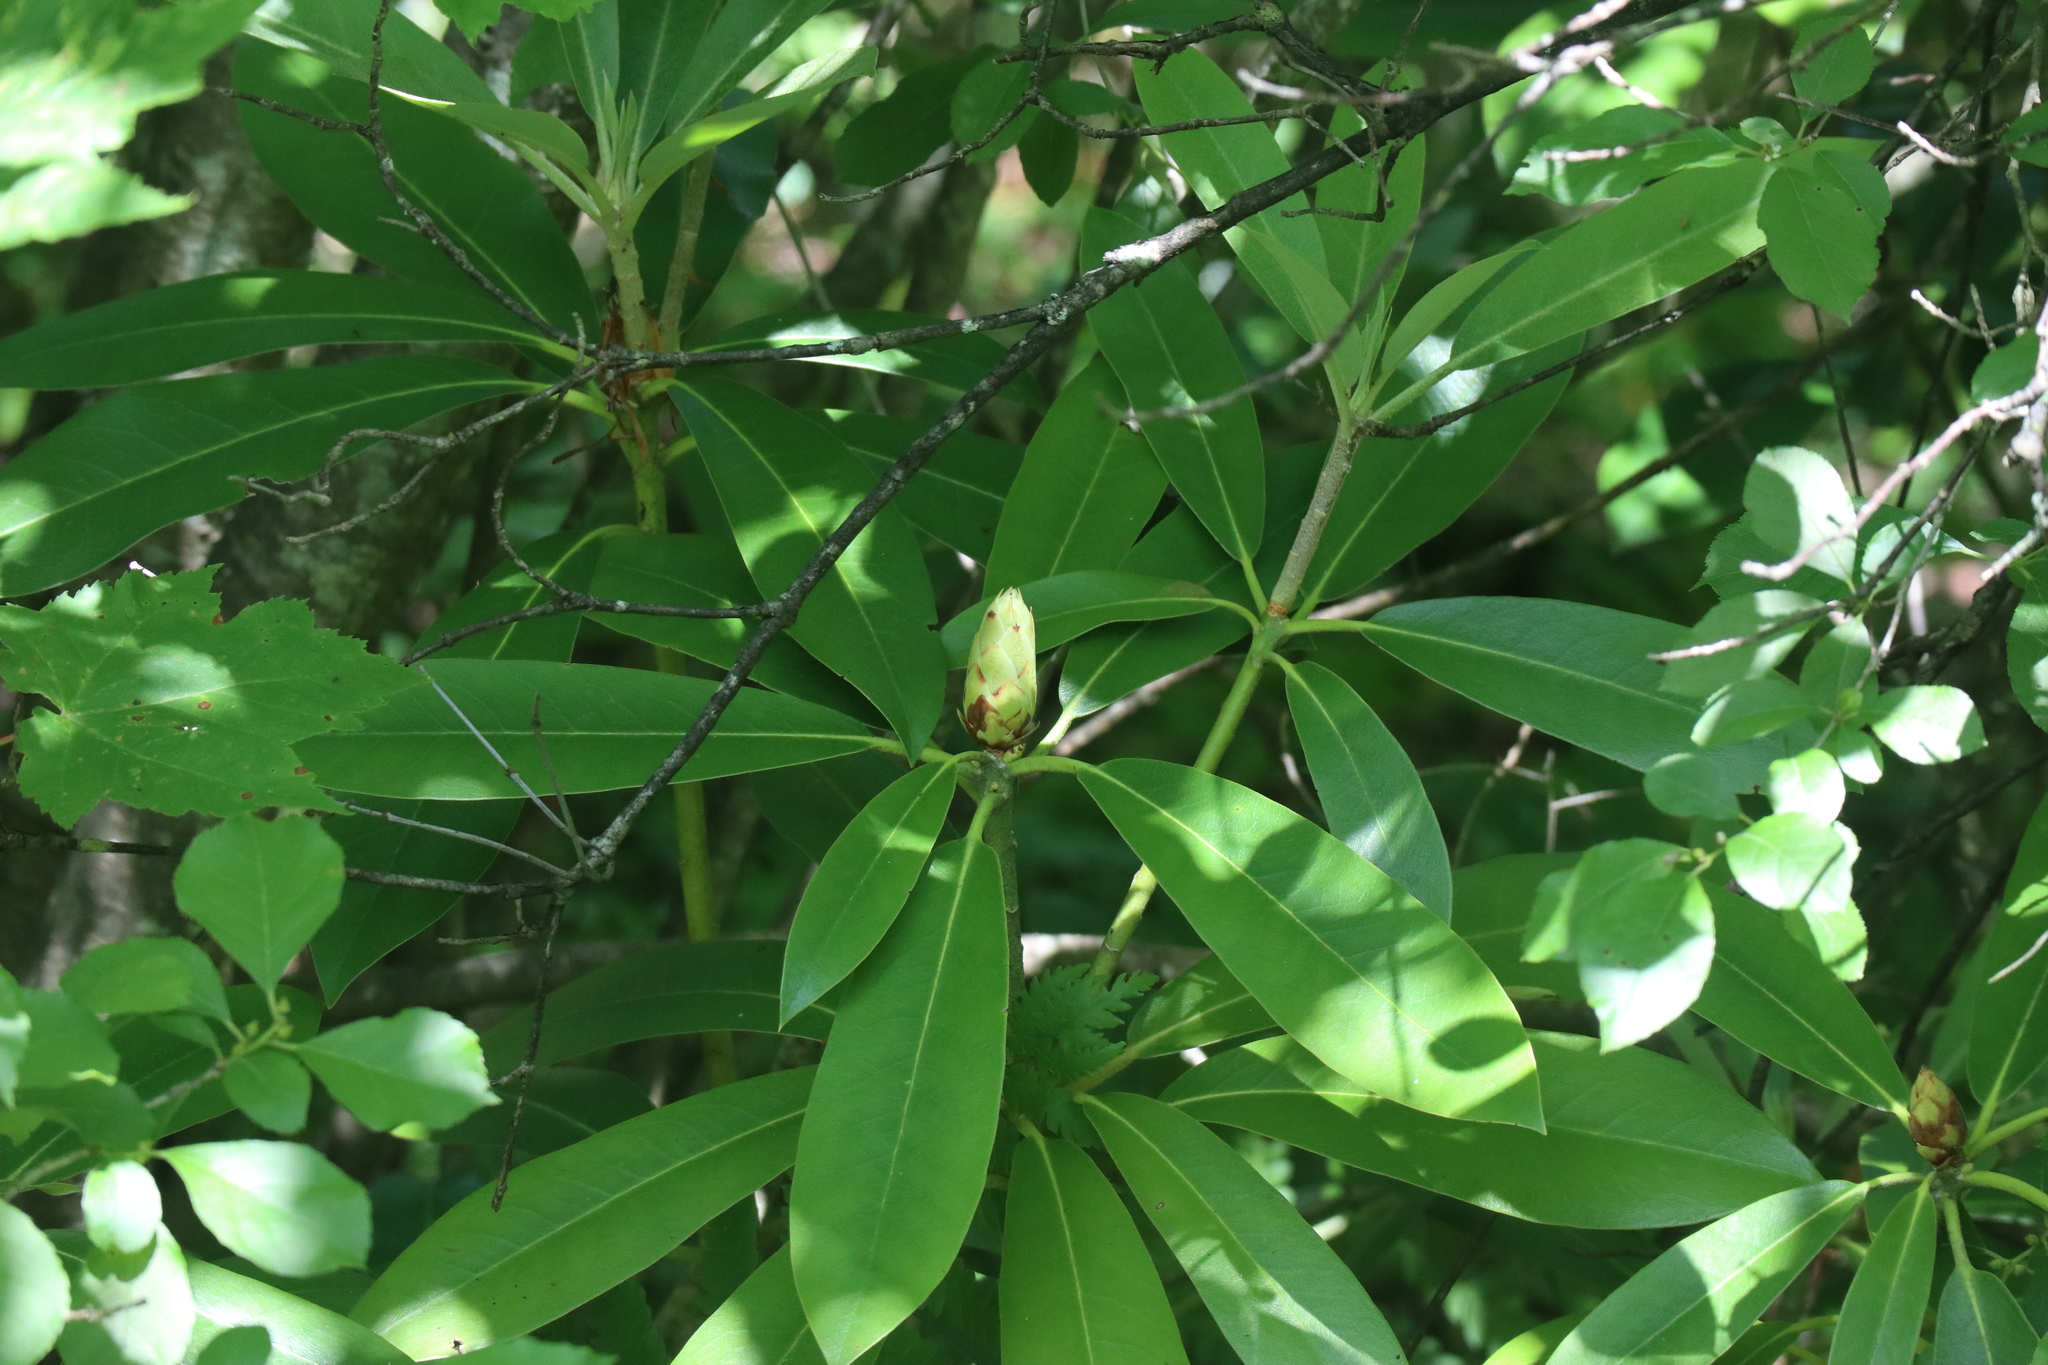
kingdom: Plantae
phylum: Tracheophyta
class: Magnoliopsida
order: Ericales
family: Ericaceae
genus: Rhododendron
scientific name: Rhododendron maximum
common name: Great rhododendron
